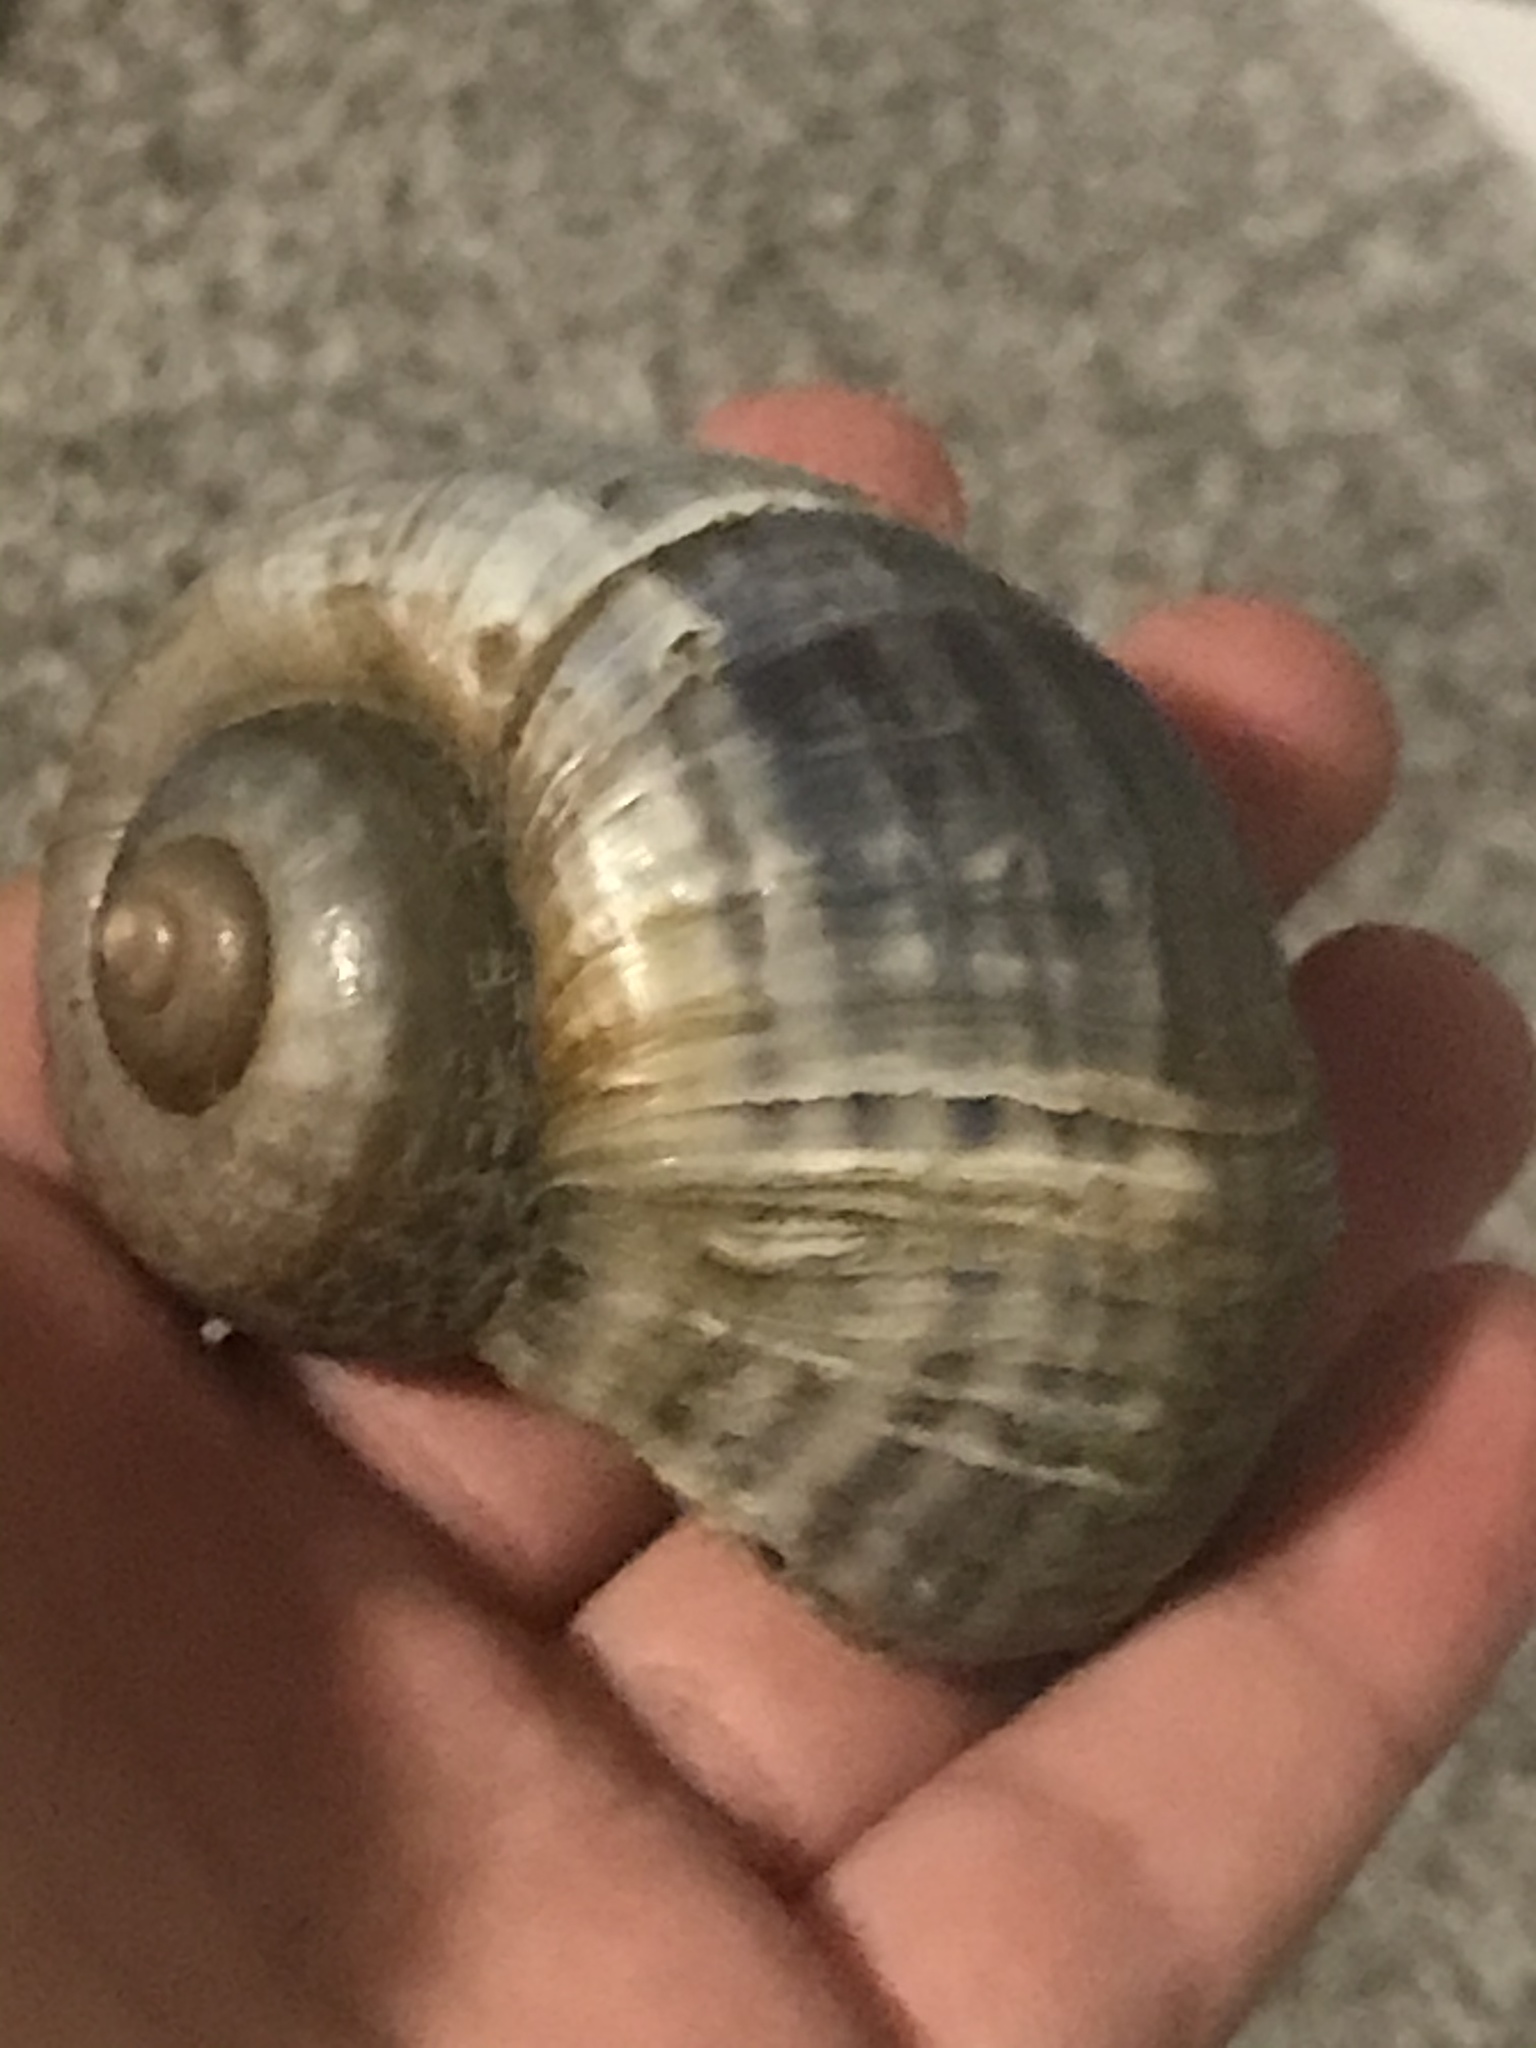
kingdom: Animalia
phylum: Mollusca
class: Gastropoda
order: Architaenioglossa
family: Ampullariidae
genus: Pomacea
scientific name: Pomacea canaliculata
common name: Channeled applesnail
